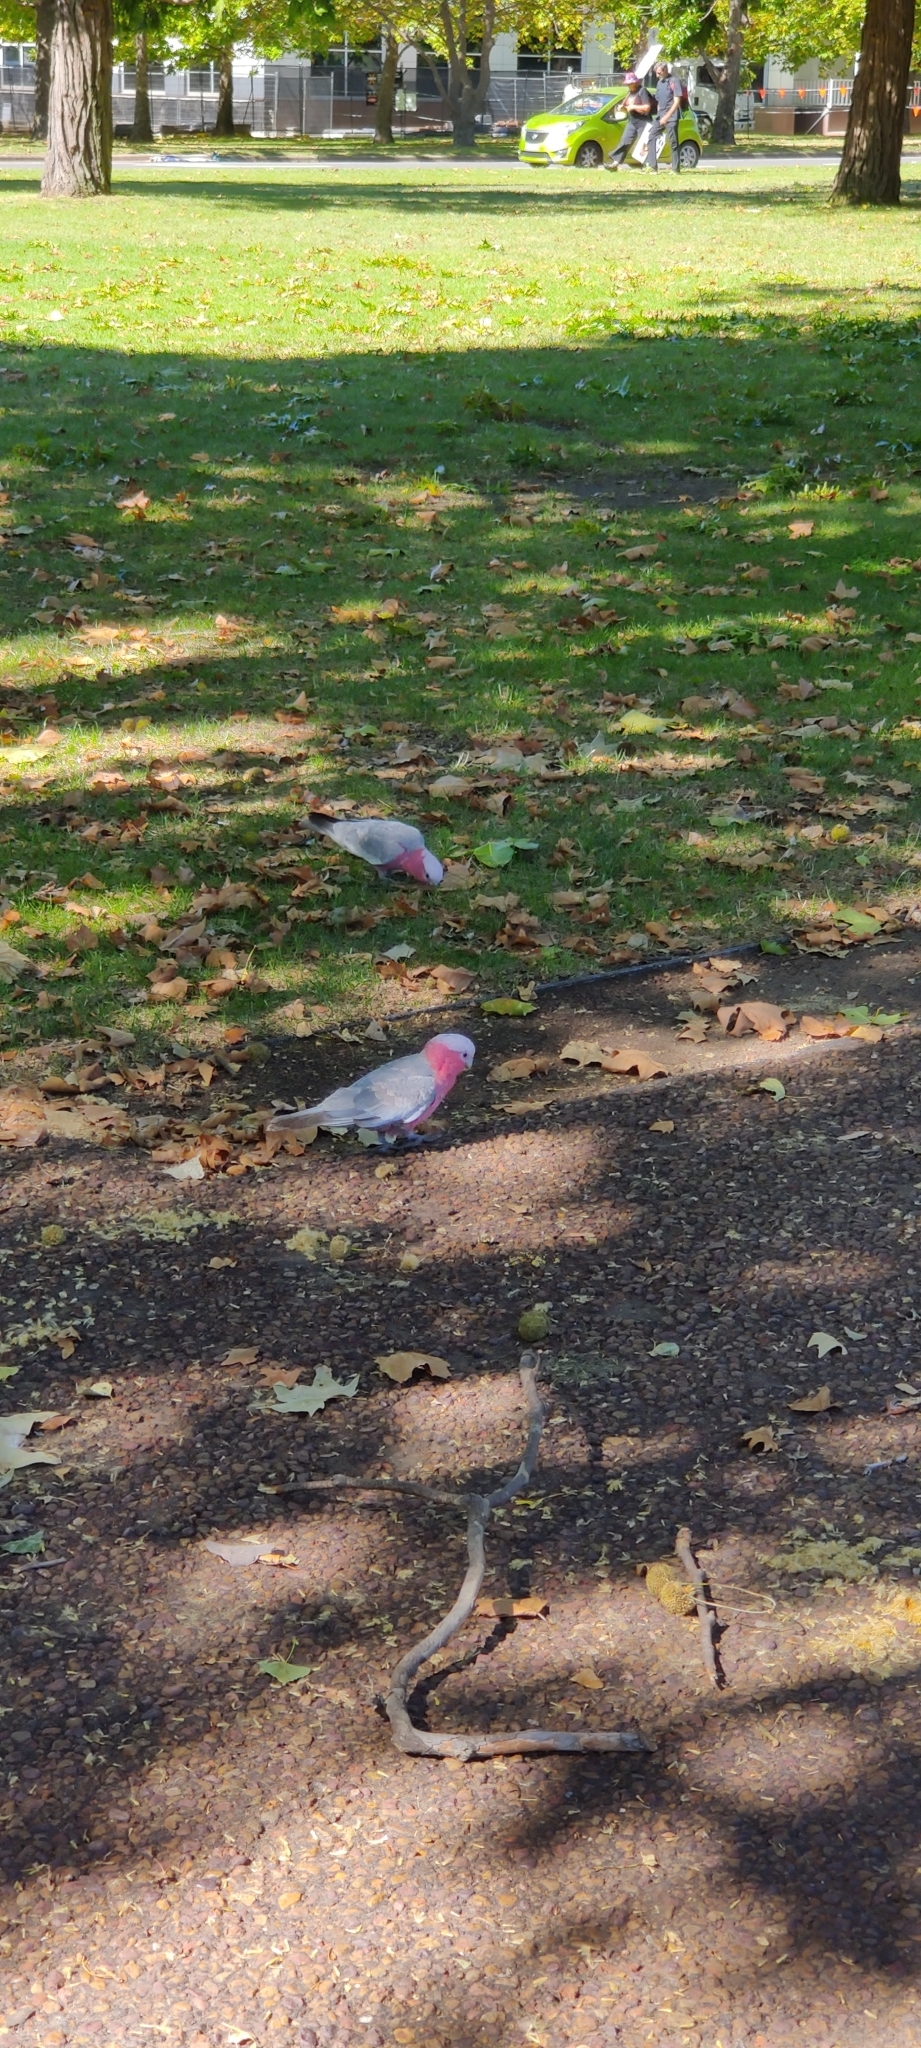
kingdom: Animalia
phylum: Chordata
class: Aves
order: Psittaciformes
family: Psittacidae
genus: Eolophus
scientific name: Eolophus roseicapilla
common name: Galah
